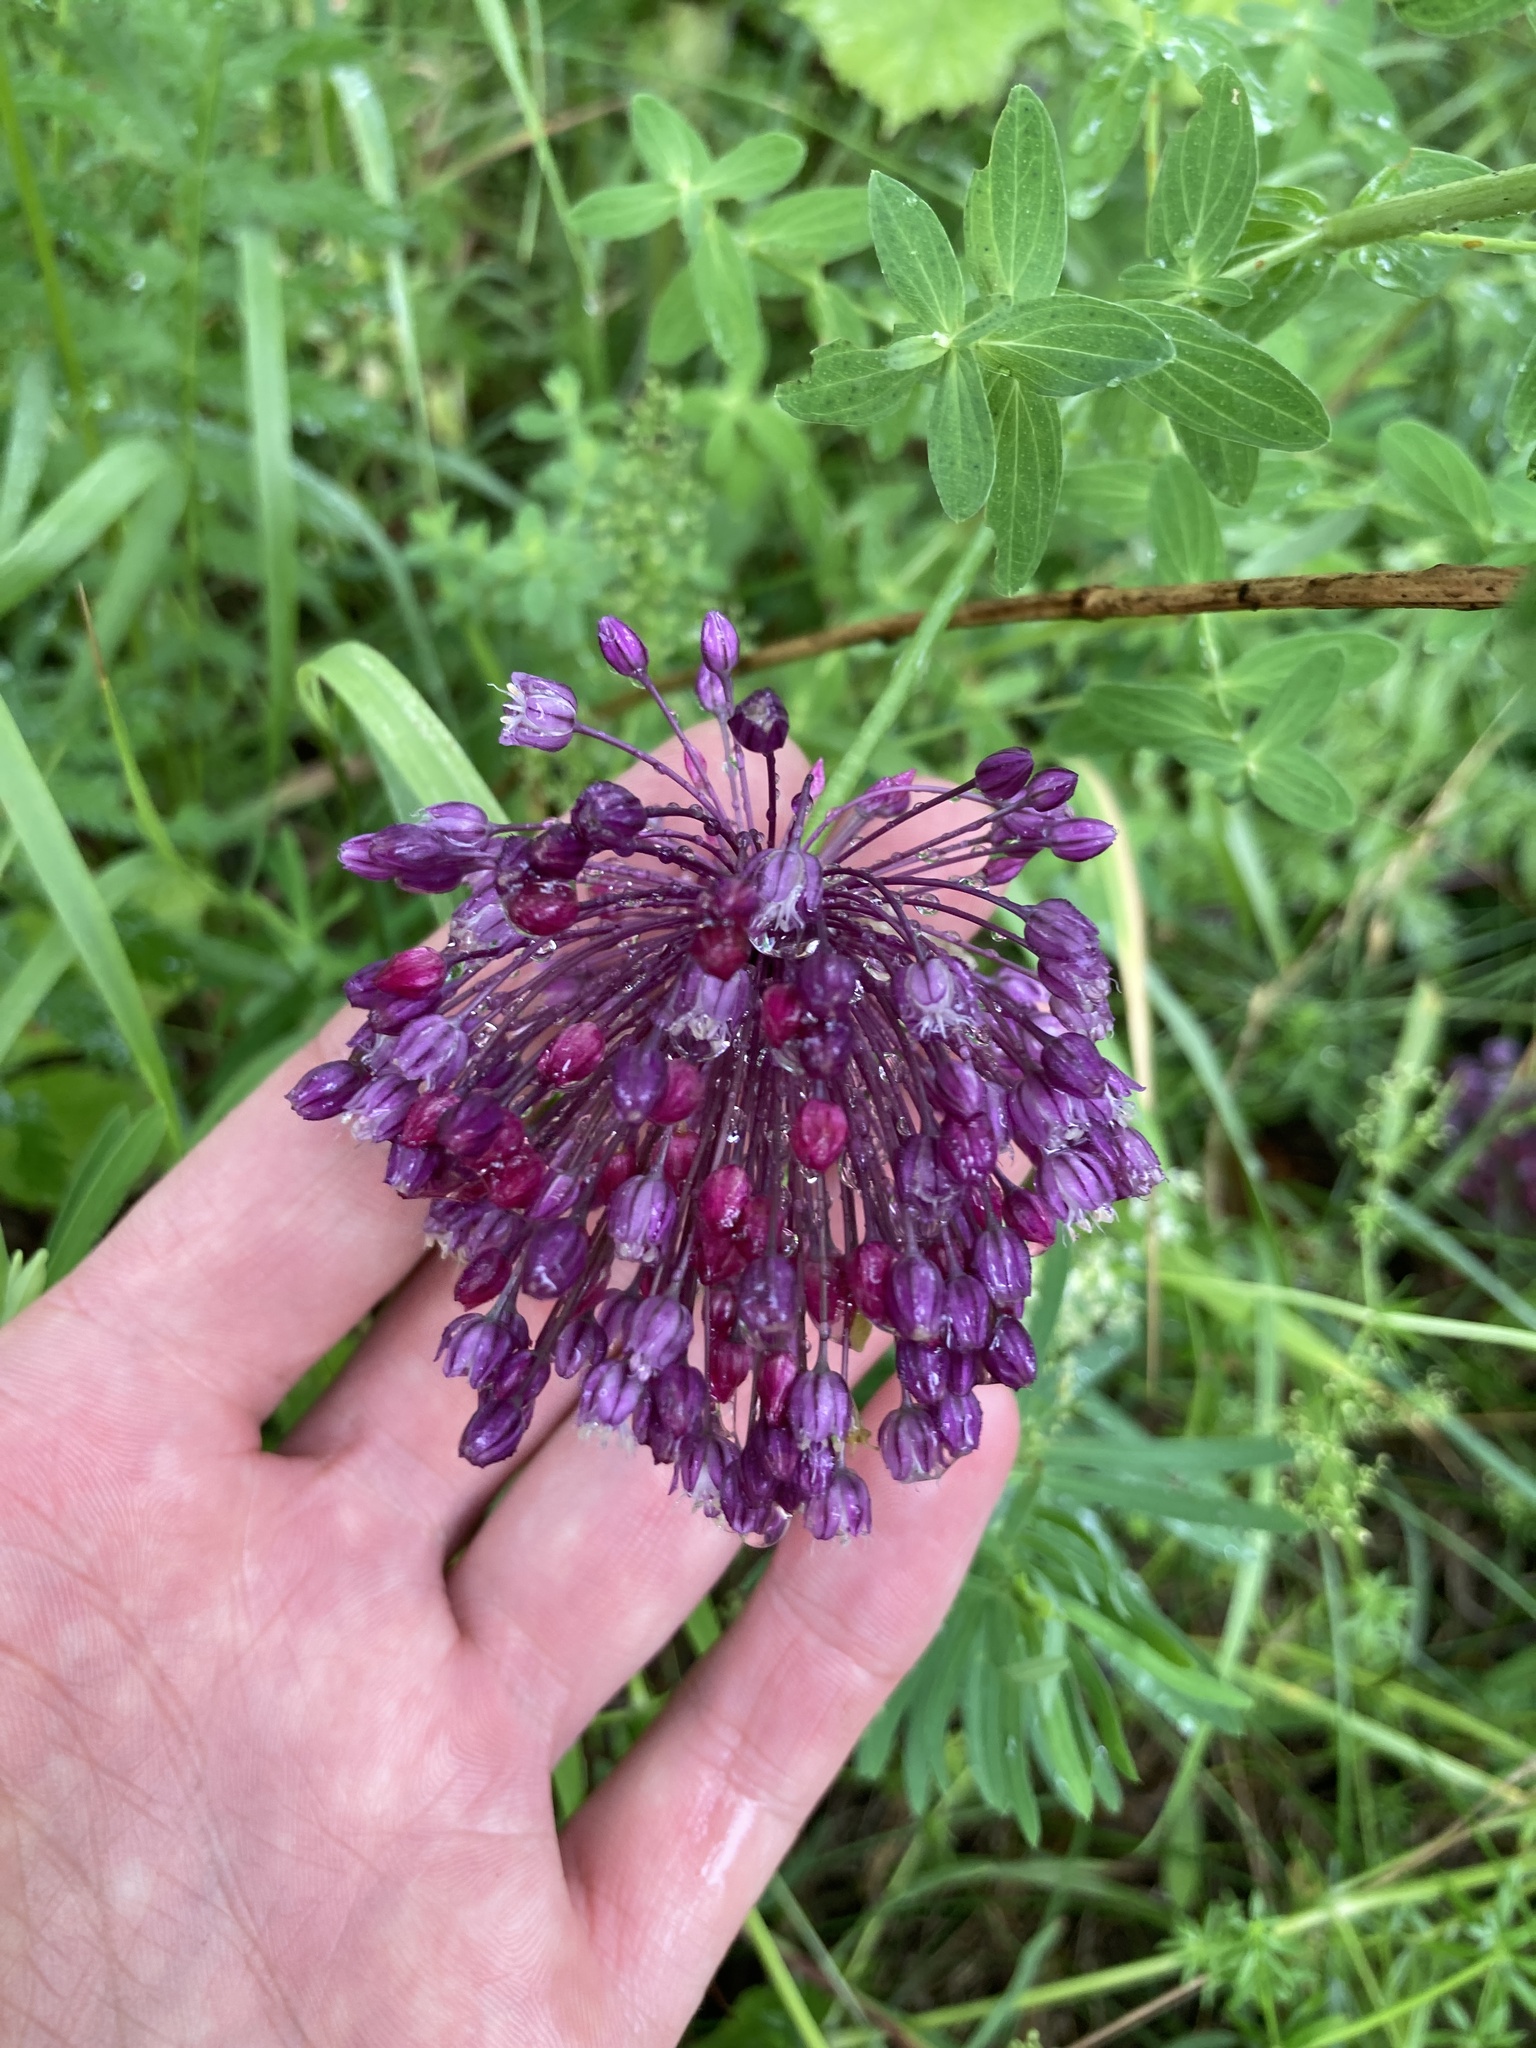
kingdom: Plantae
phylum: Tracheophyta
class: Liliopsida
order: Asparagales
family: Amaryllidaceae
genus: Allium
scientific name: Allium rotundum
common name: Sand leek
